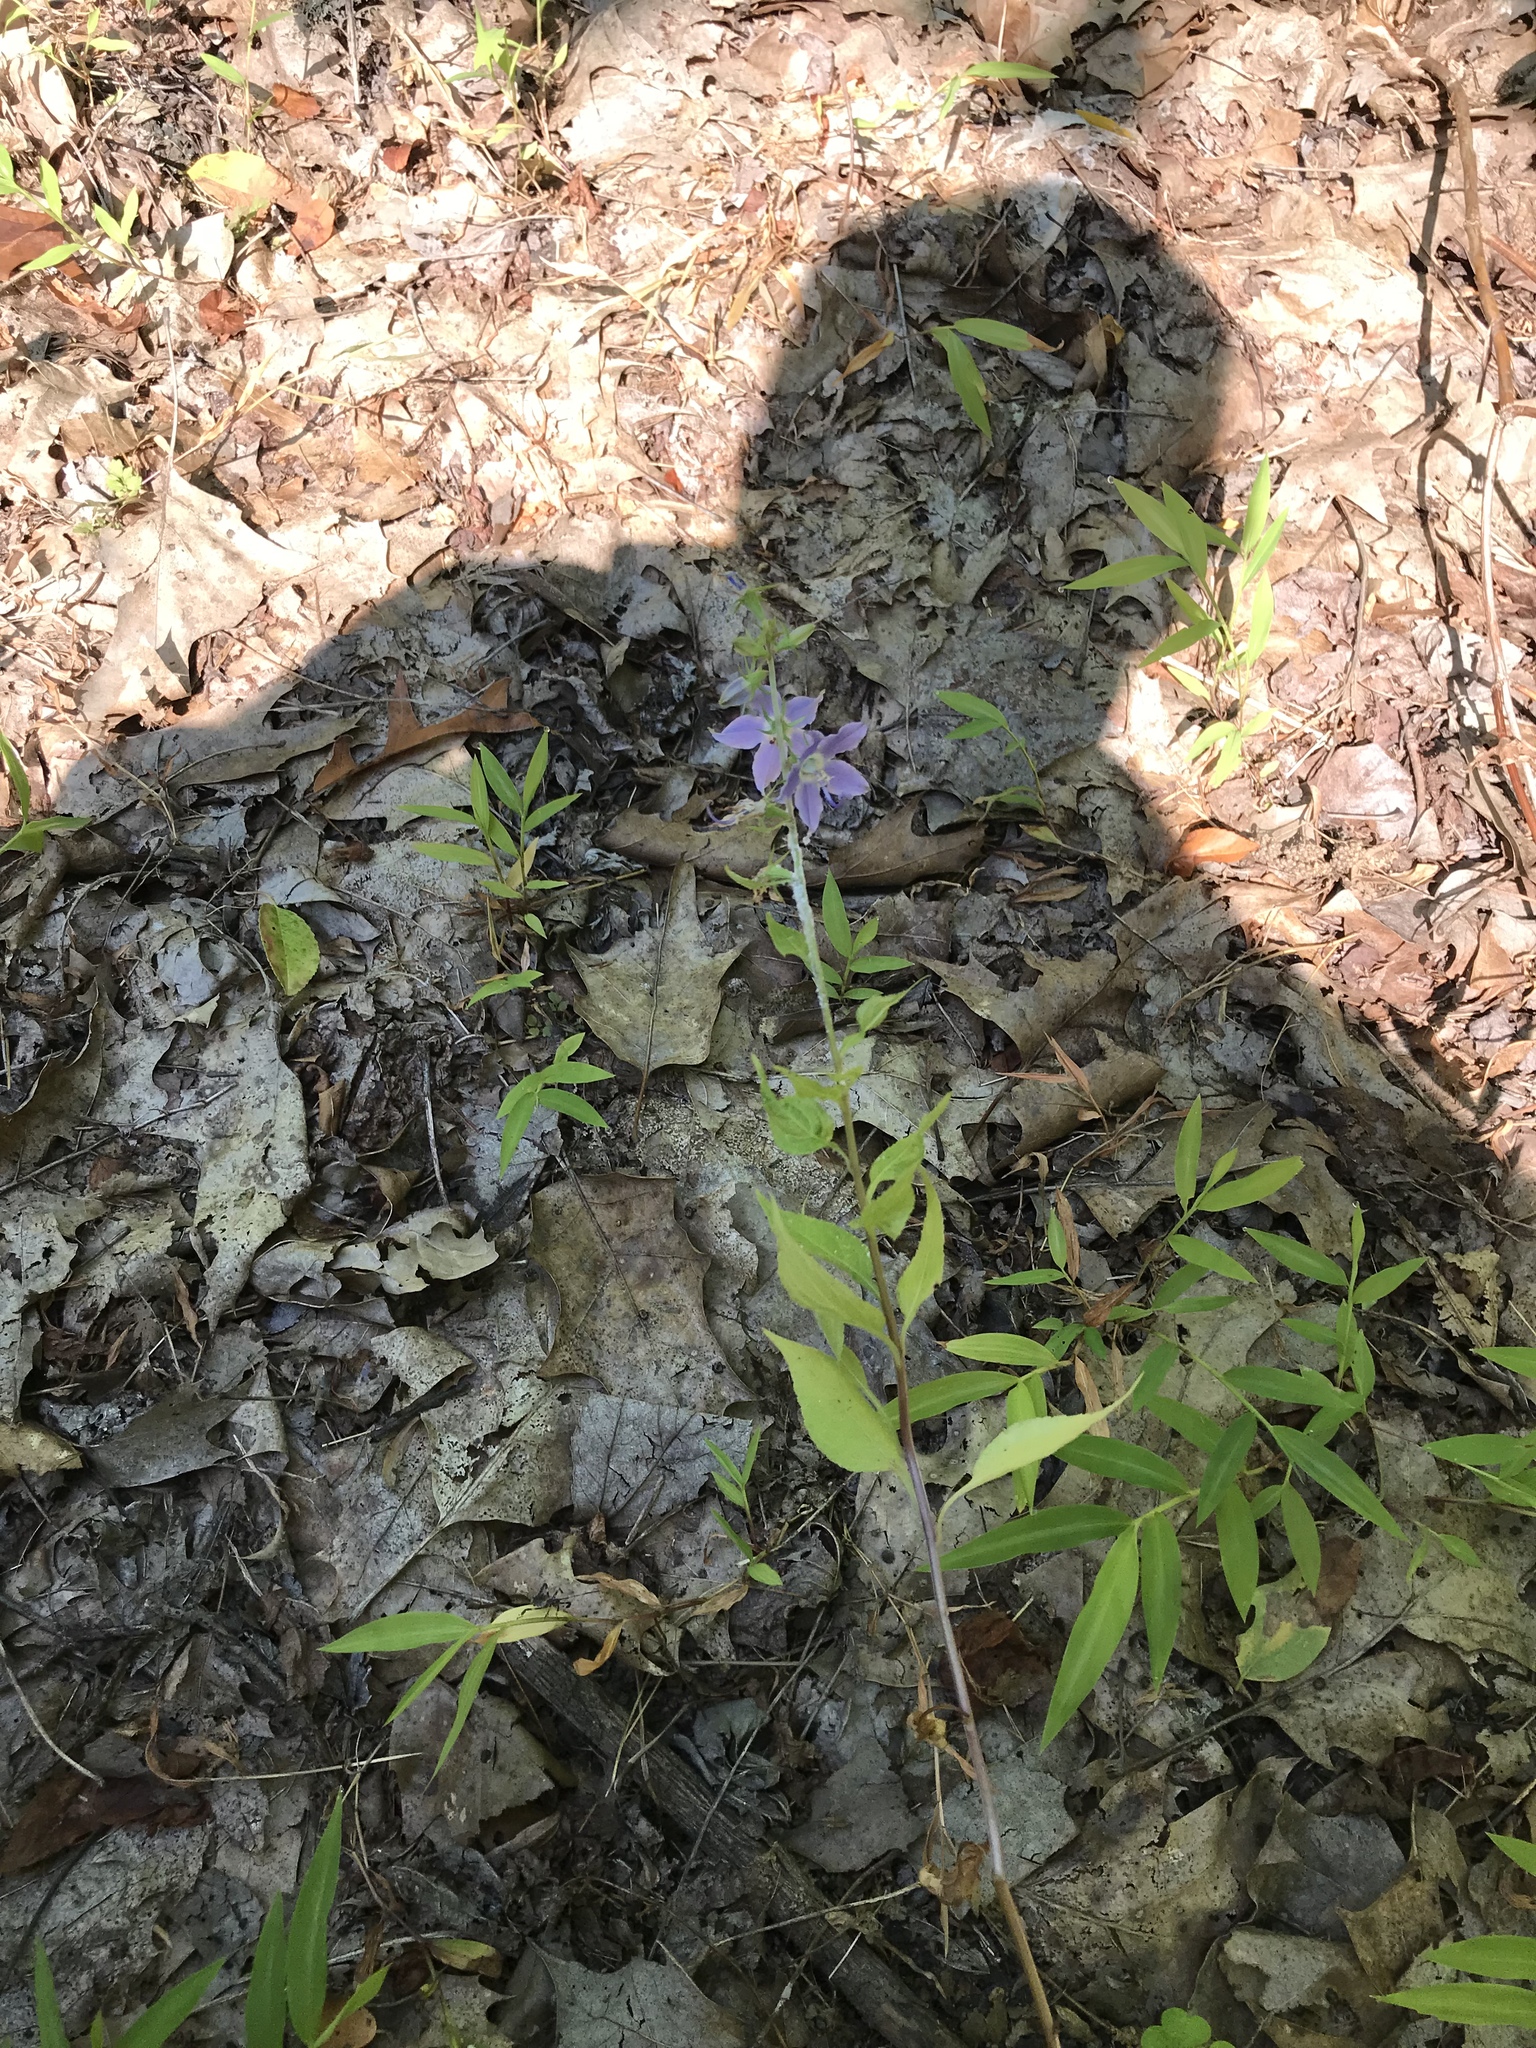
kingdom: Plantae
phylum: Tracheophyta
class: Magnoliopsida
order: Asterales
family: Campanulaceae
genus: Campanulastrum
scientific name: Campanulastrum americanum
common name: American bellflower
